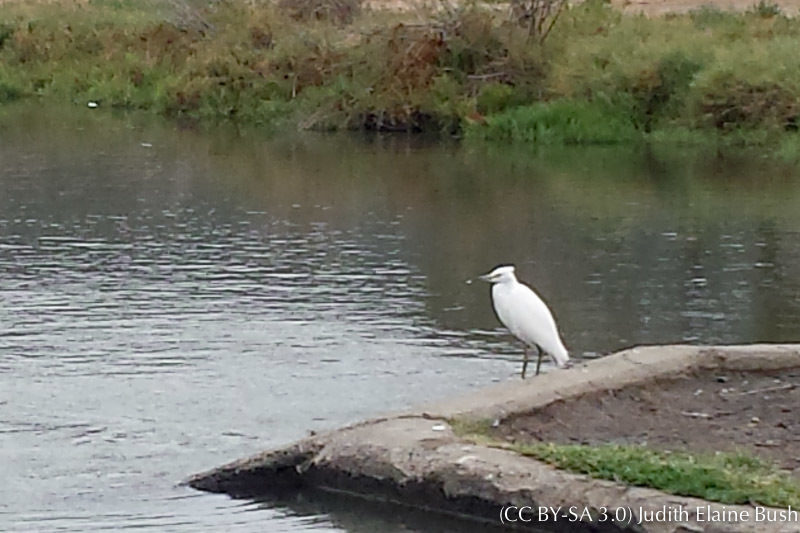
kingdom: Animalia
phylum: Chordata
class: Aves
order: Pelecaniformes
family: Ardeidae
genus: Egretta
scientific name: Egretta thula
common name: Snowy egret
